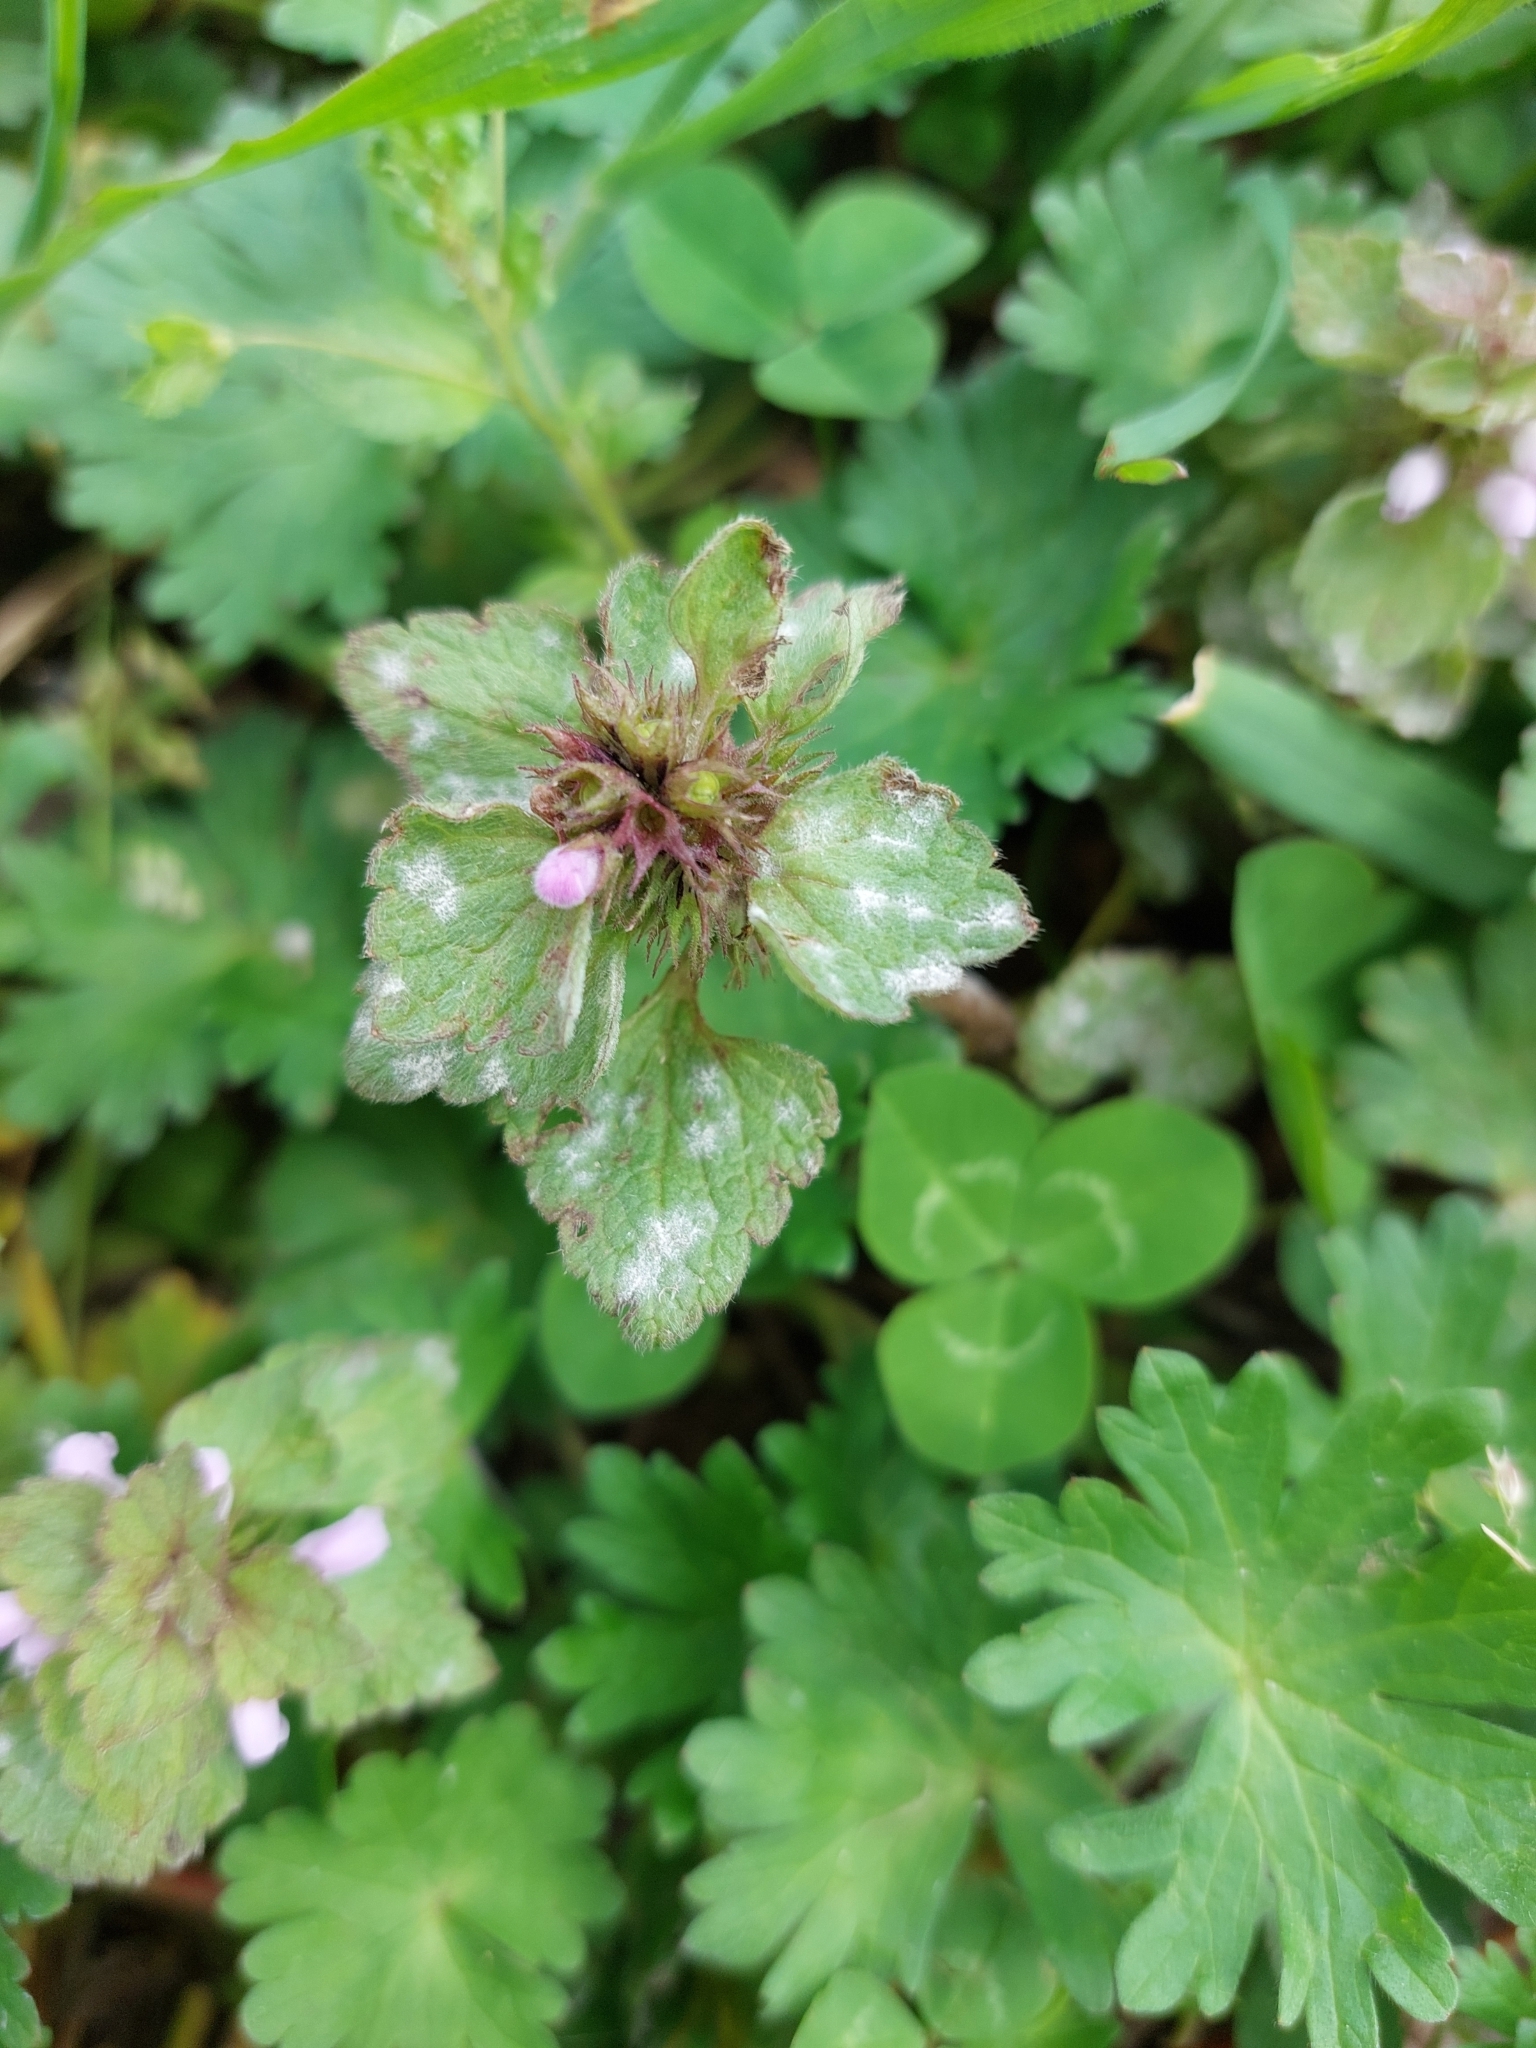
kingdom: Fungi
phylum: Ascomycota
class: Leotiomycetes
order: Helotiales
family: Erysiphaceae
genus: Neoerysiphe
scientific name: Neoerysiphe galeopsidis
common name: Mint mildew
